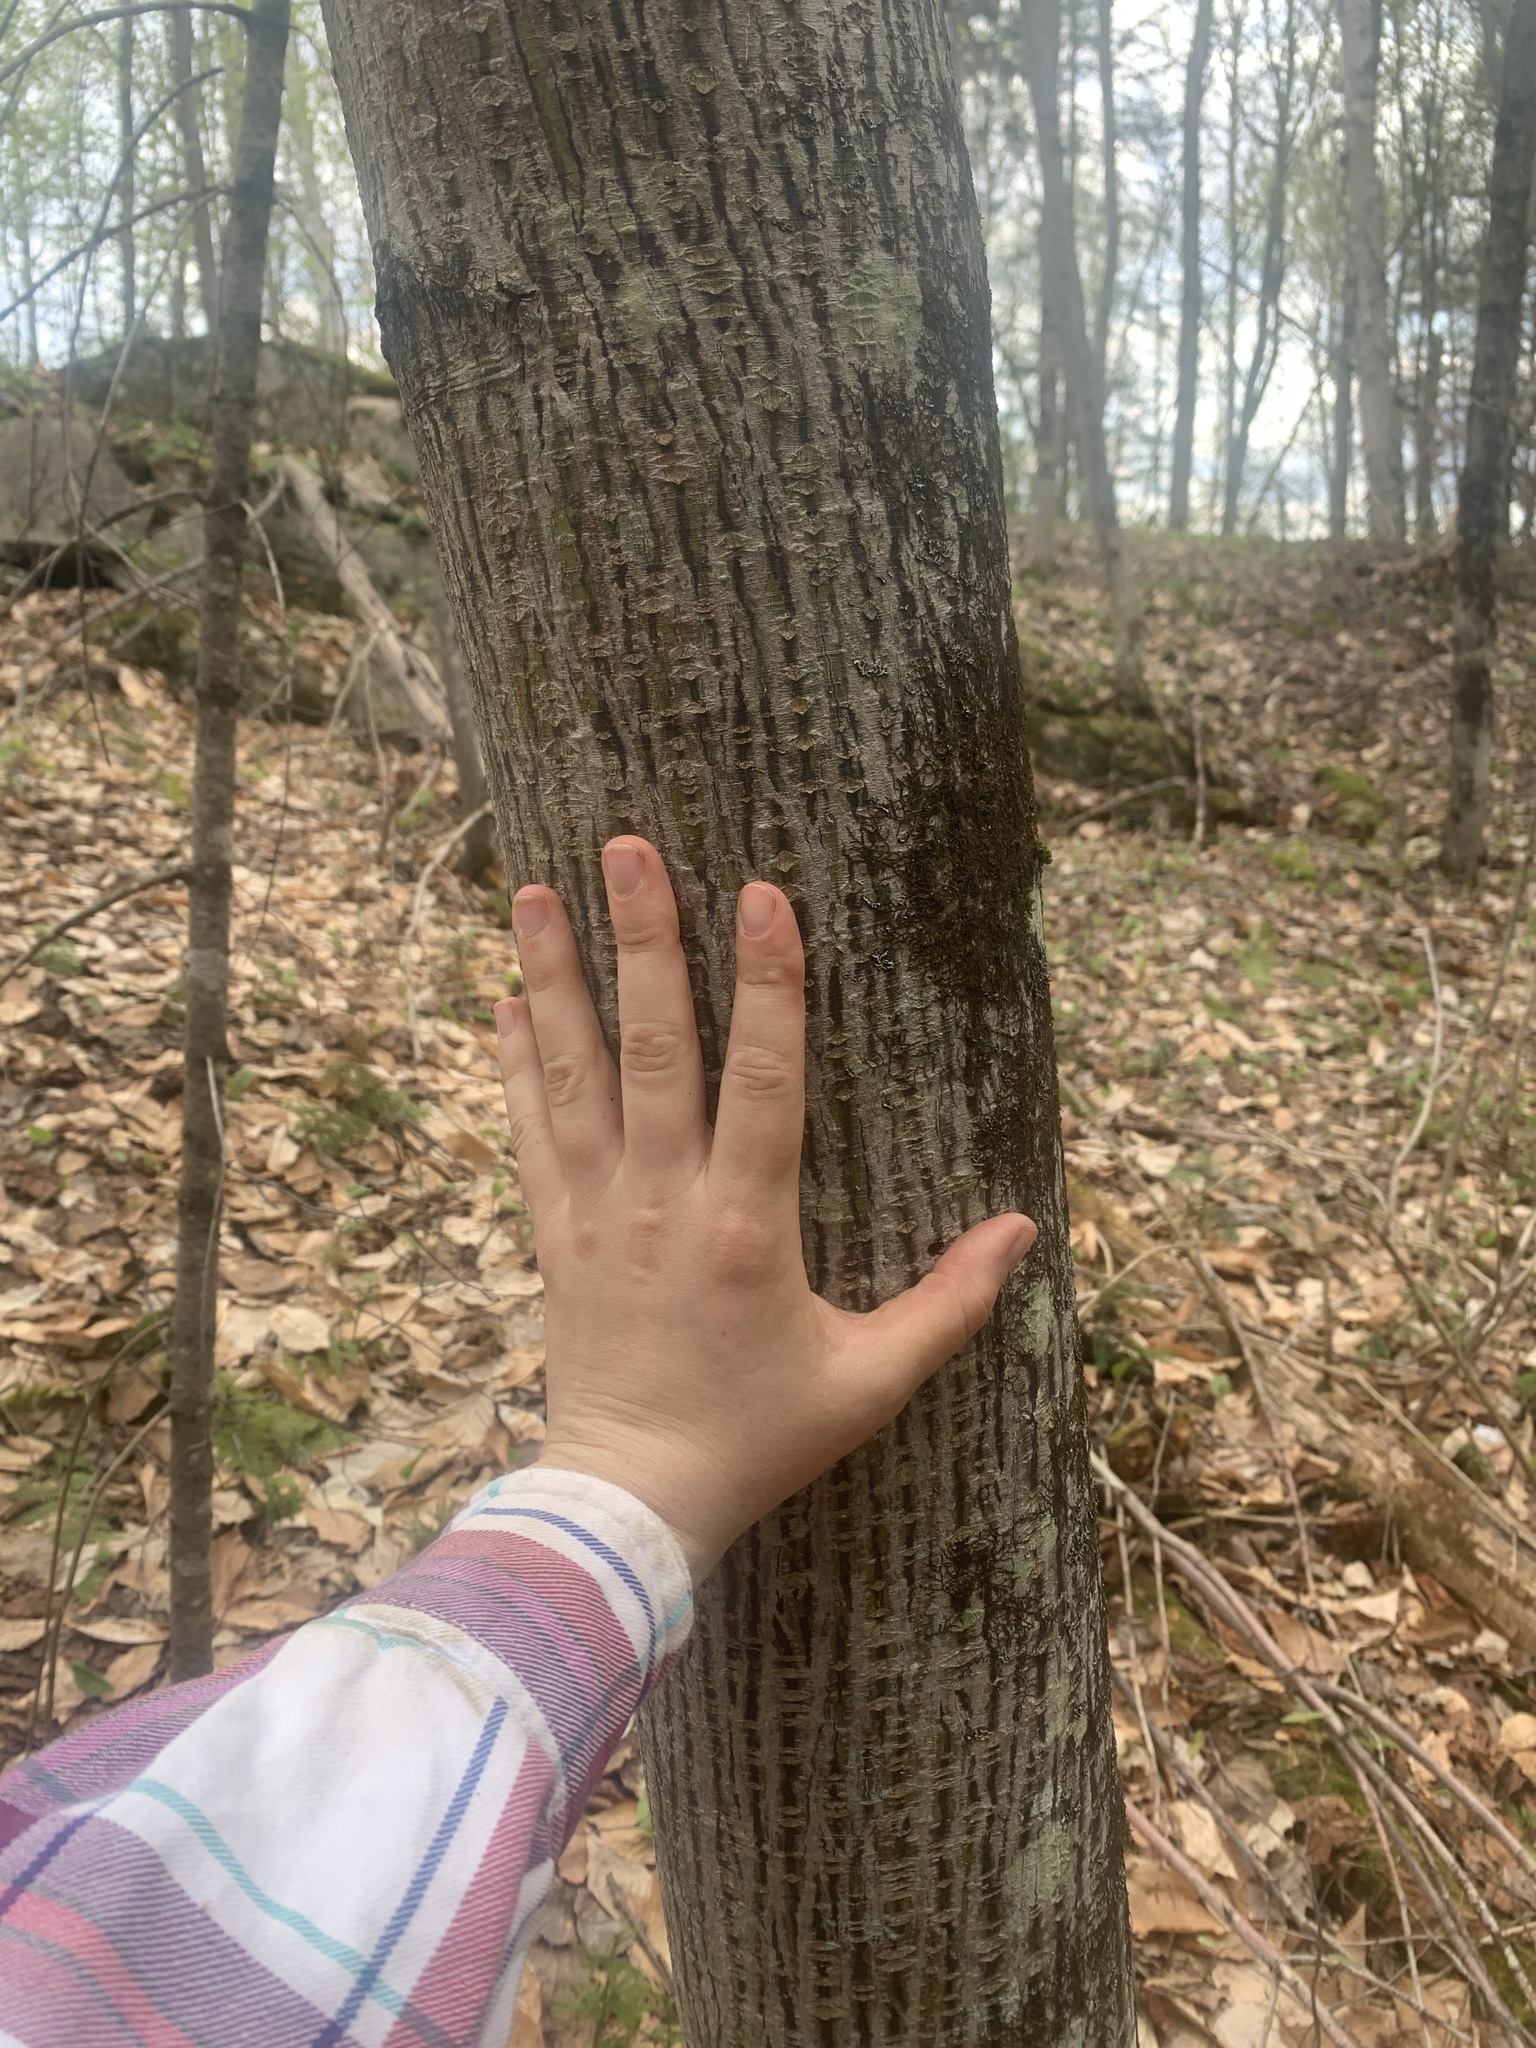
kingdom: Plantae
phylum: Tracheophyta
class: Magnoliopsida
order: Sapindales
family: Sapindaceae
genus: Acer
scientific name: Acer pensylvanicum
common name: Moosewood
